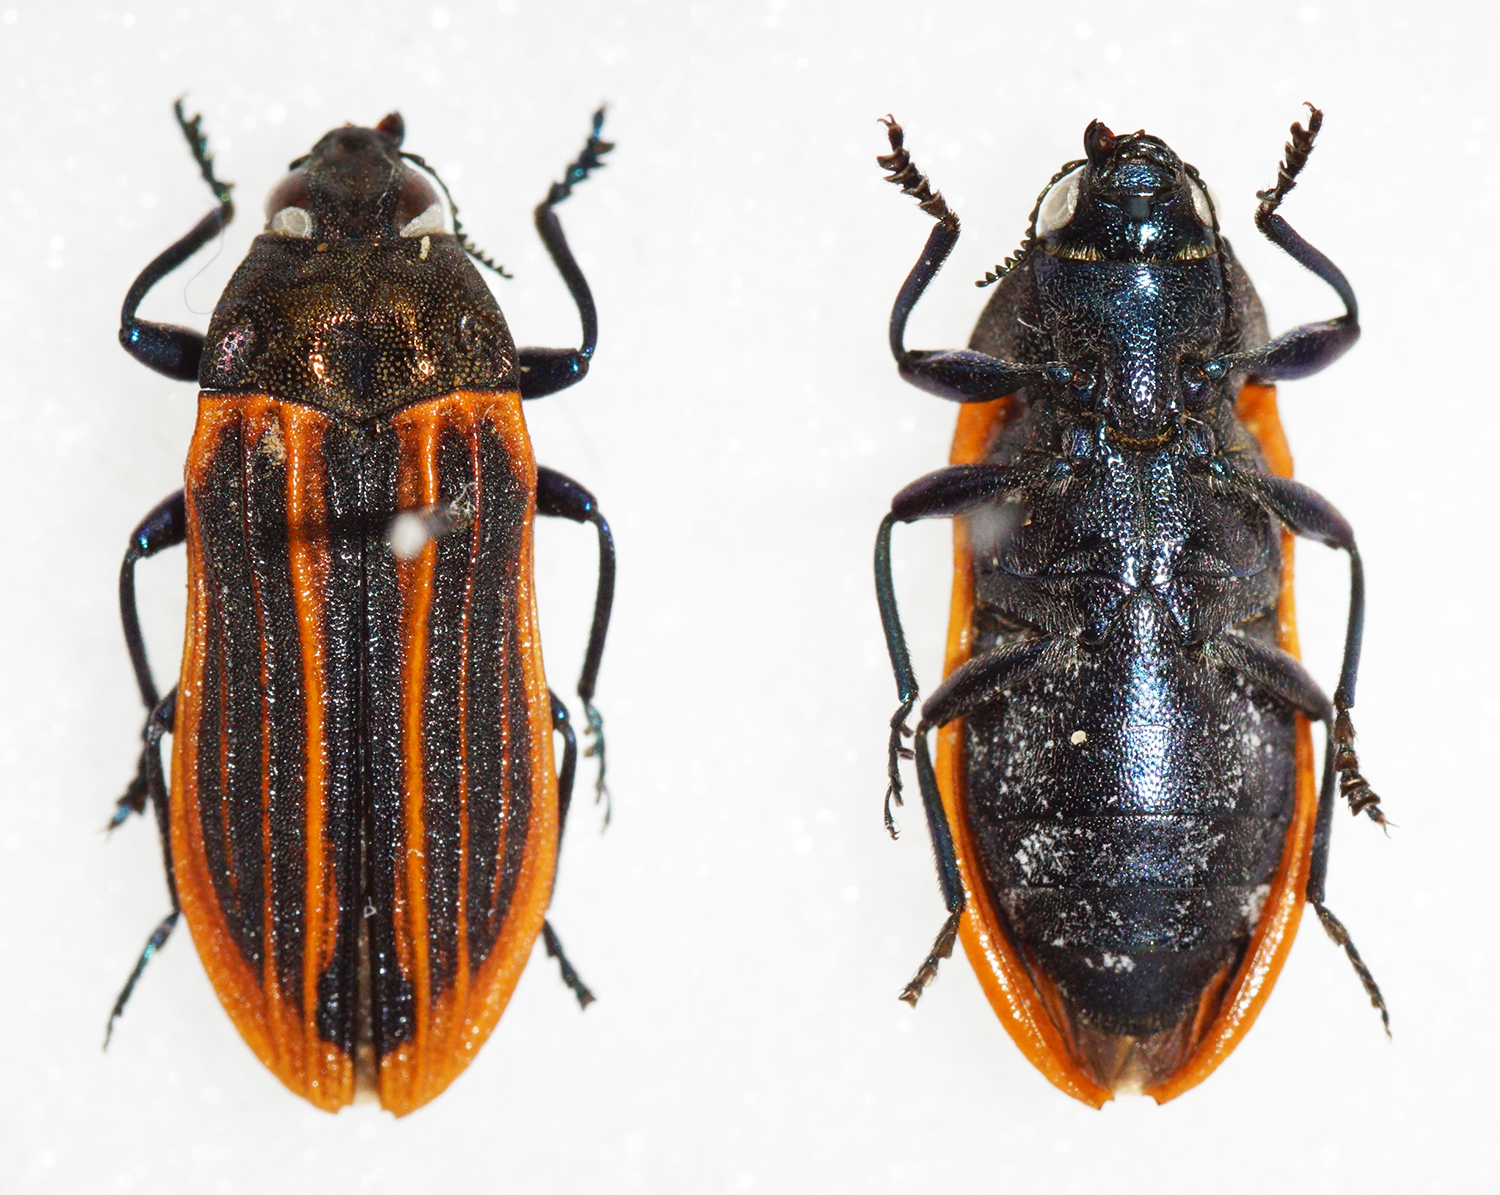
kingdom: Animalia
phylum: Arthropoda
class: Insecta
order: Coleoptera
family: Buprestidae
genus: Castiarina
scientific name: Castiarina praetermissa
